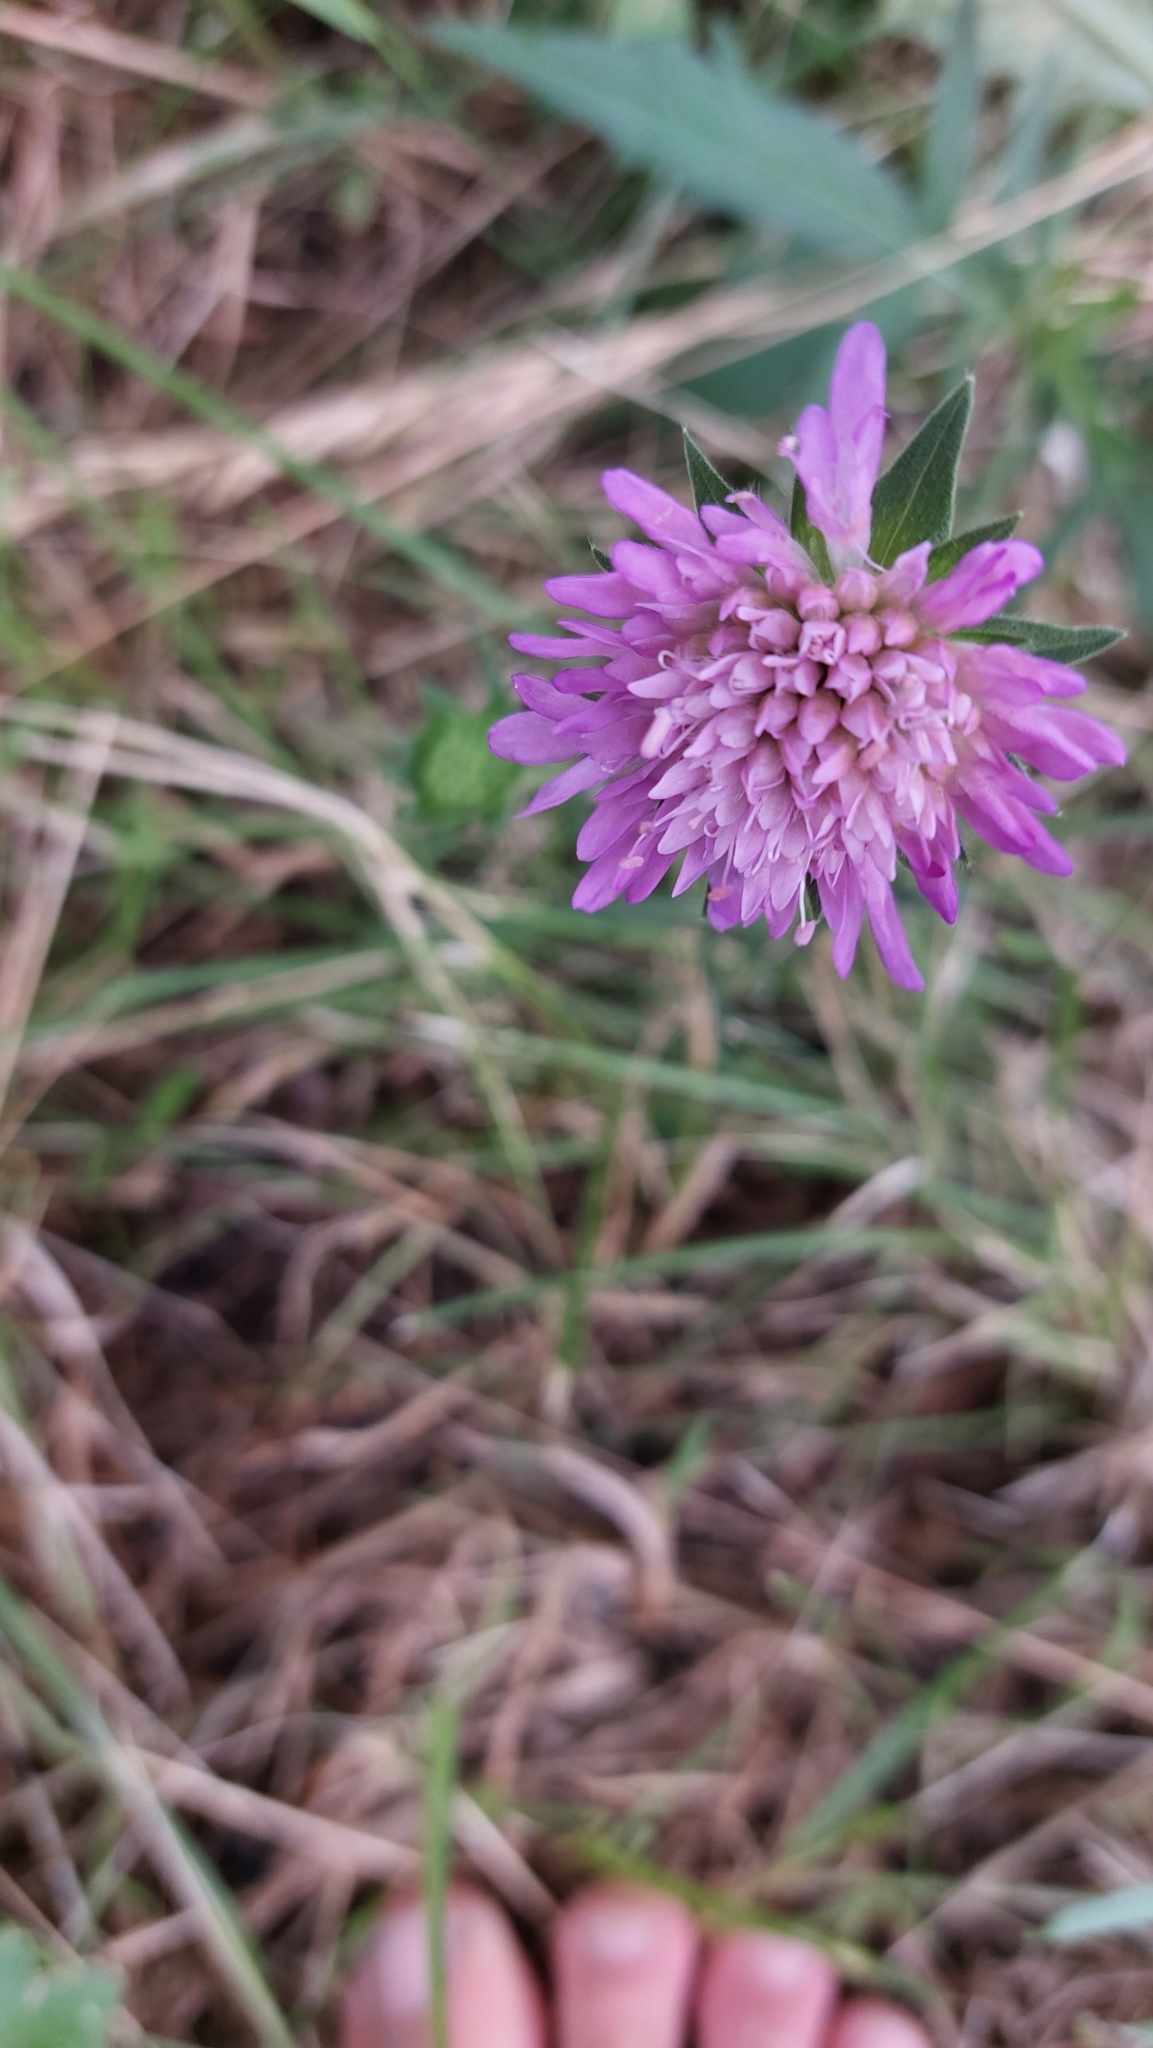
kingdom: Plantae
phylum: Tracheophyta
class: Magnoliopsida
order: Dipsacales
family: Caprifoliaceae
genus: Knautia
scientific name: Knautia arvensis
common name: Field scabiosa
